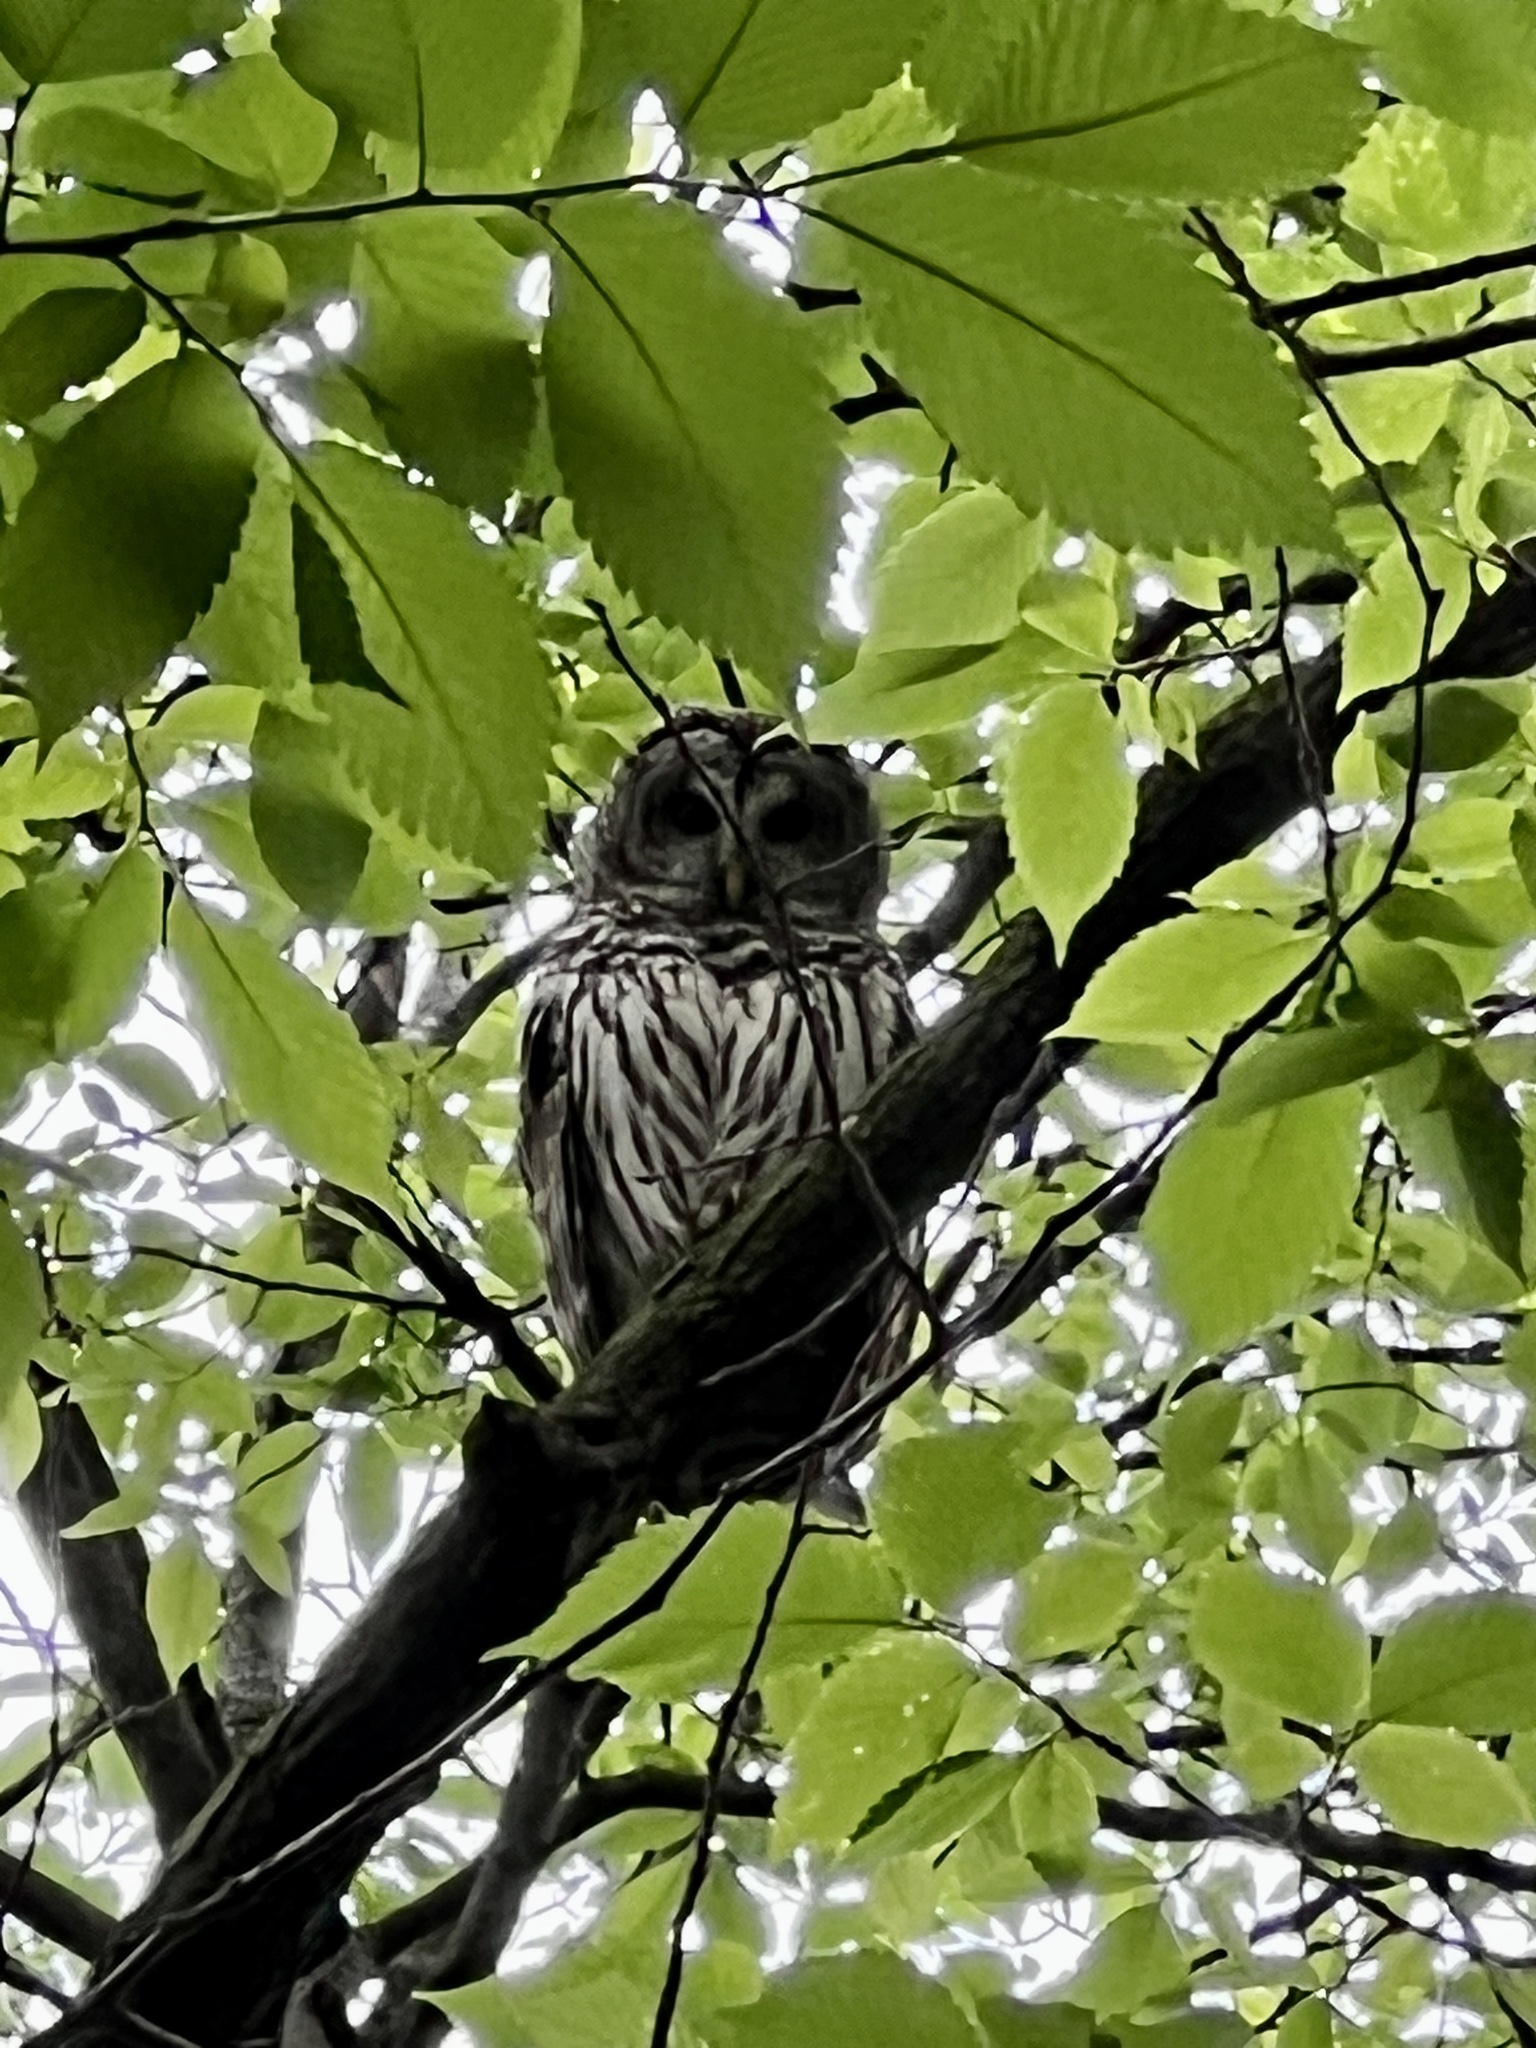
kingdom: Animalia
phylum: Chordata
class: Aves
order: Strigiformes
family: Strigidae
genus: Strix
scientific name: Strix varia
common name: Barred owl
